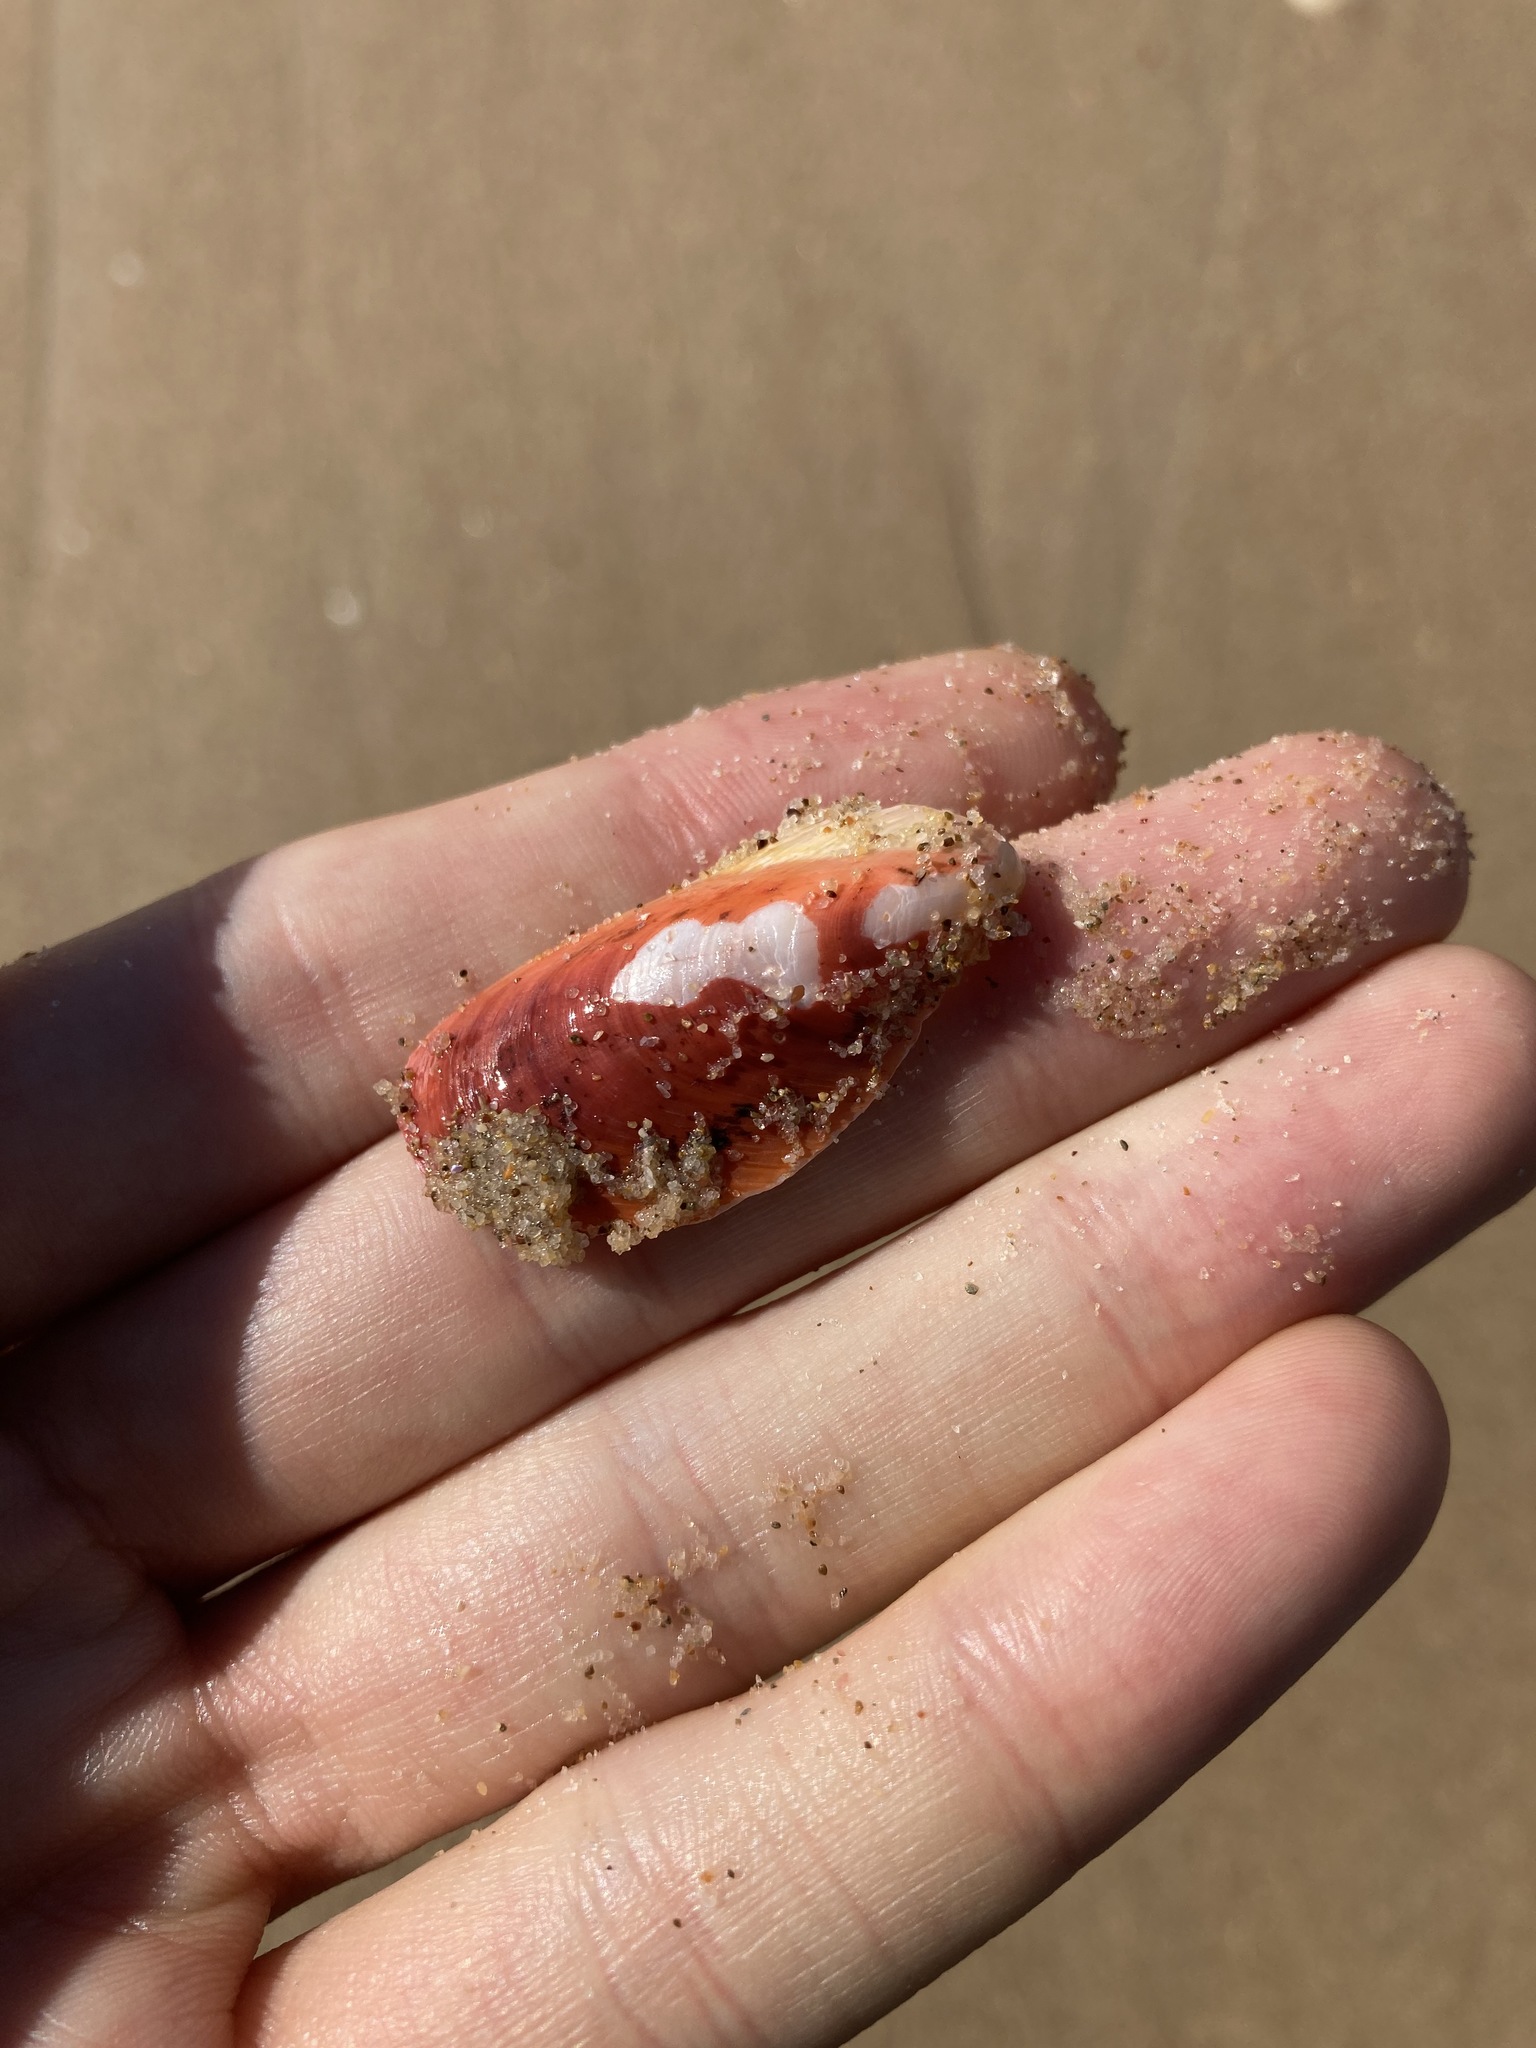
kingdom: Animalia
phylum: Mollusca
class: Bivalvia
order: Mytilida
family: Mytilidae
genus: Modiolus
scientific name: Modiolus areolatus
